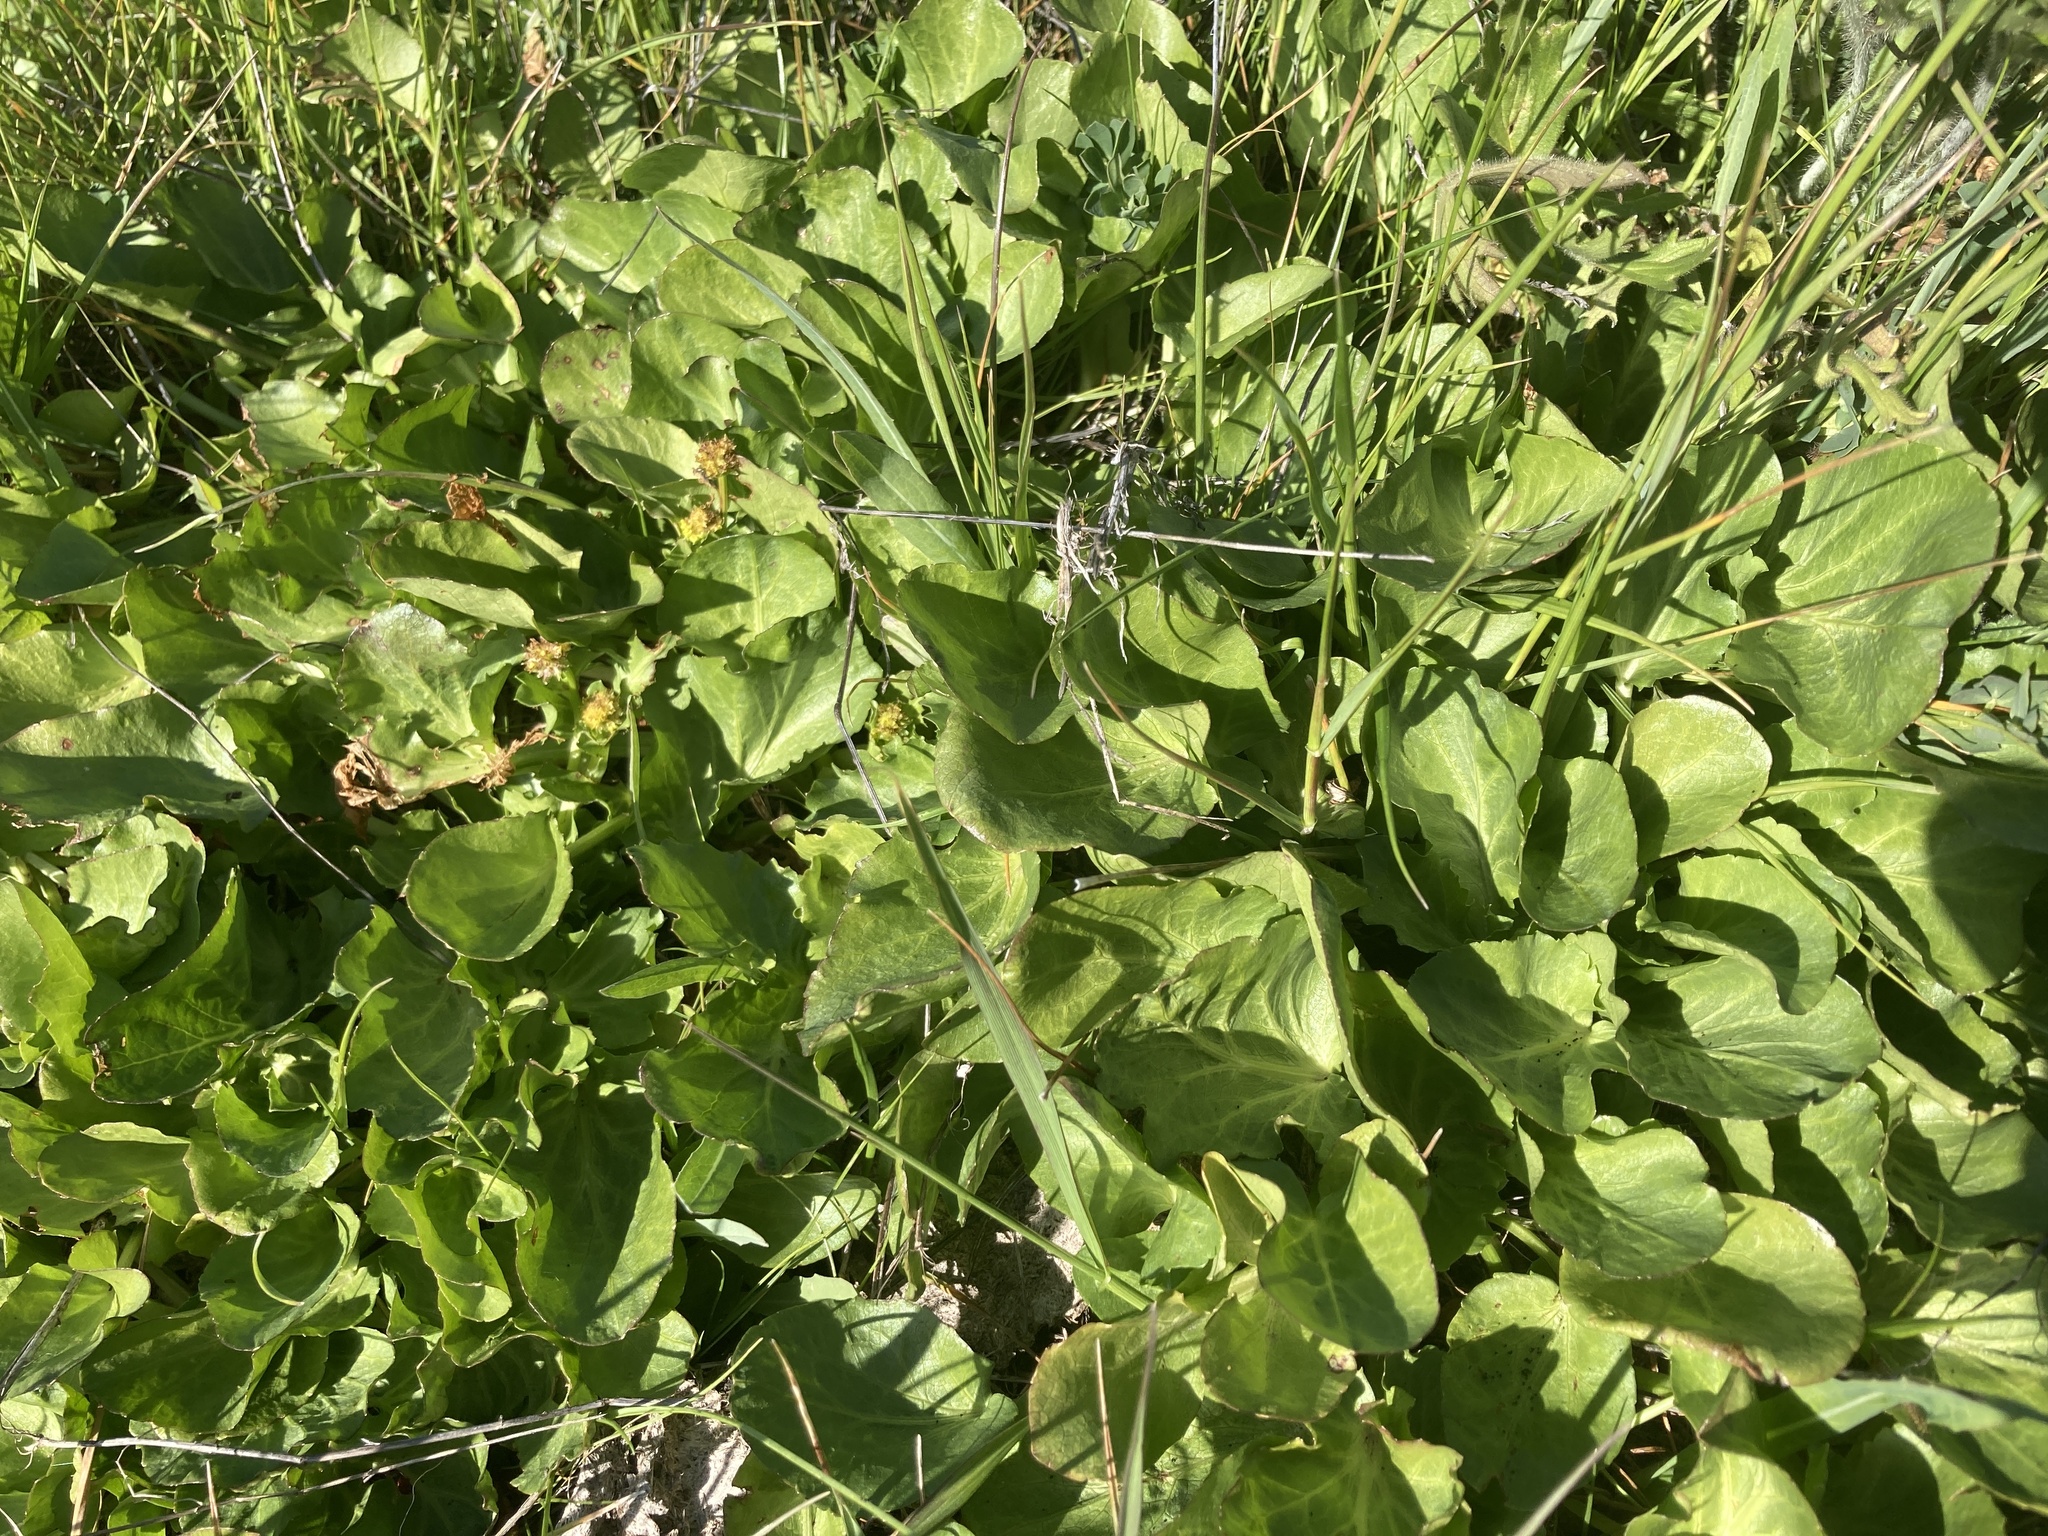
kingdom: Plantae
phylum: Tracheophyta
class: Magnoliopsida
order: Apiales
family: Apiaceae
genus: Sanicula
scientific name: Sanicula maritima
